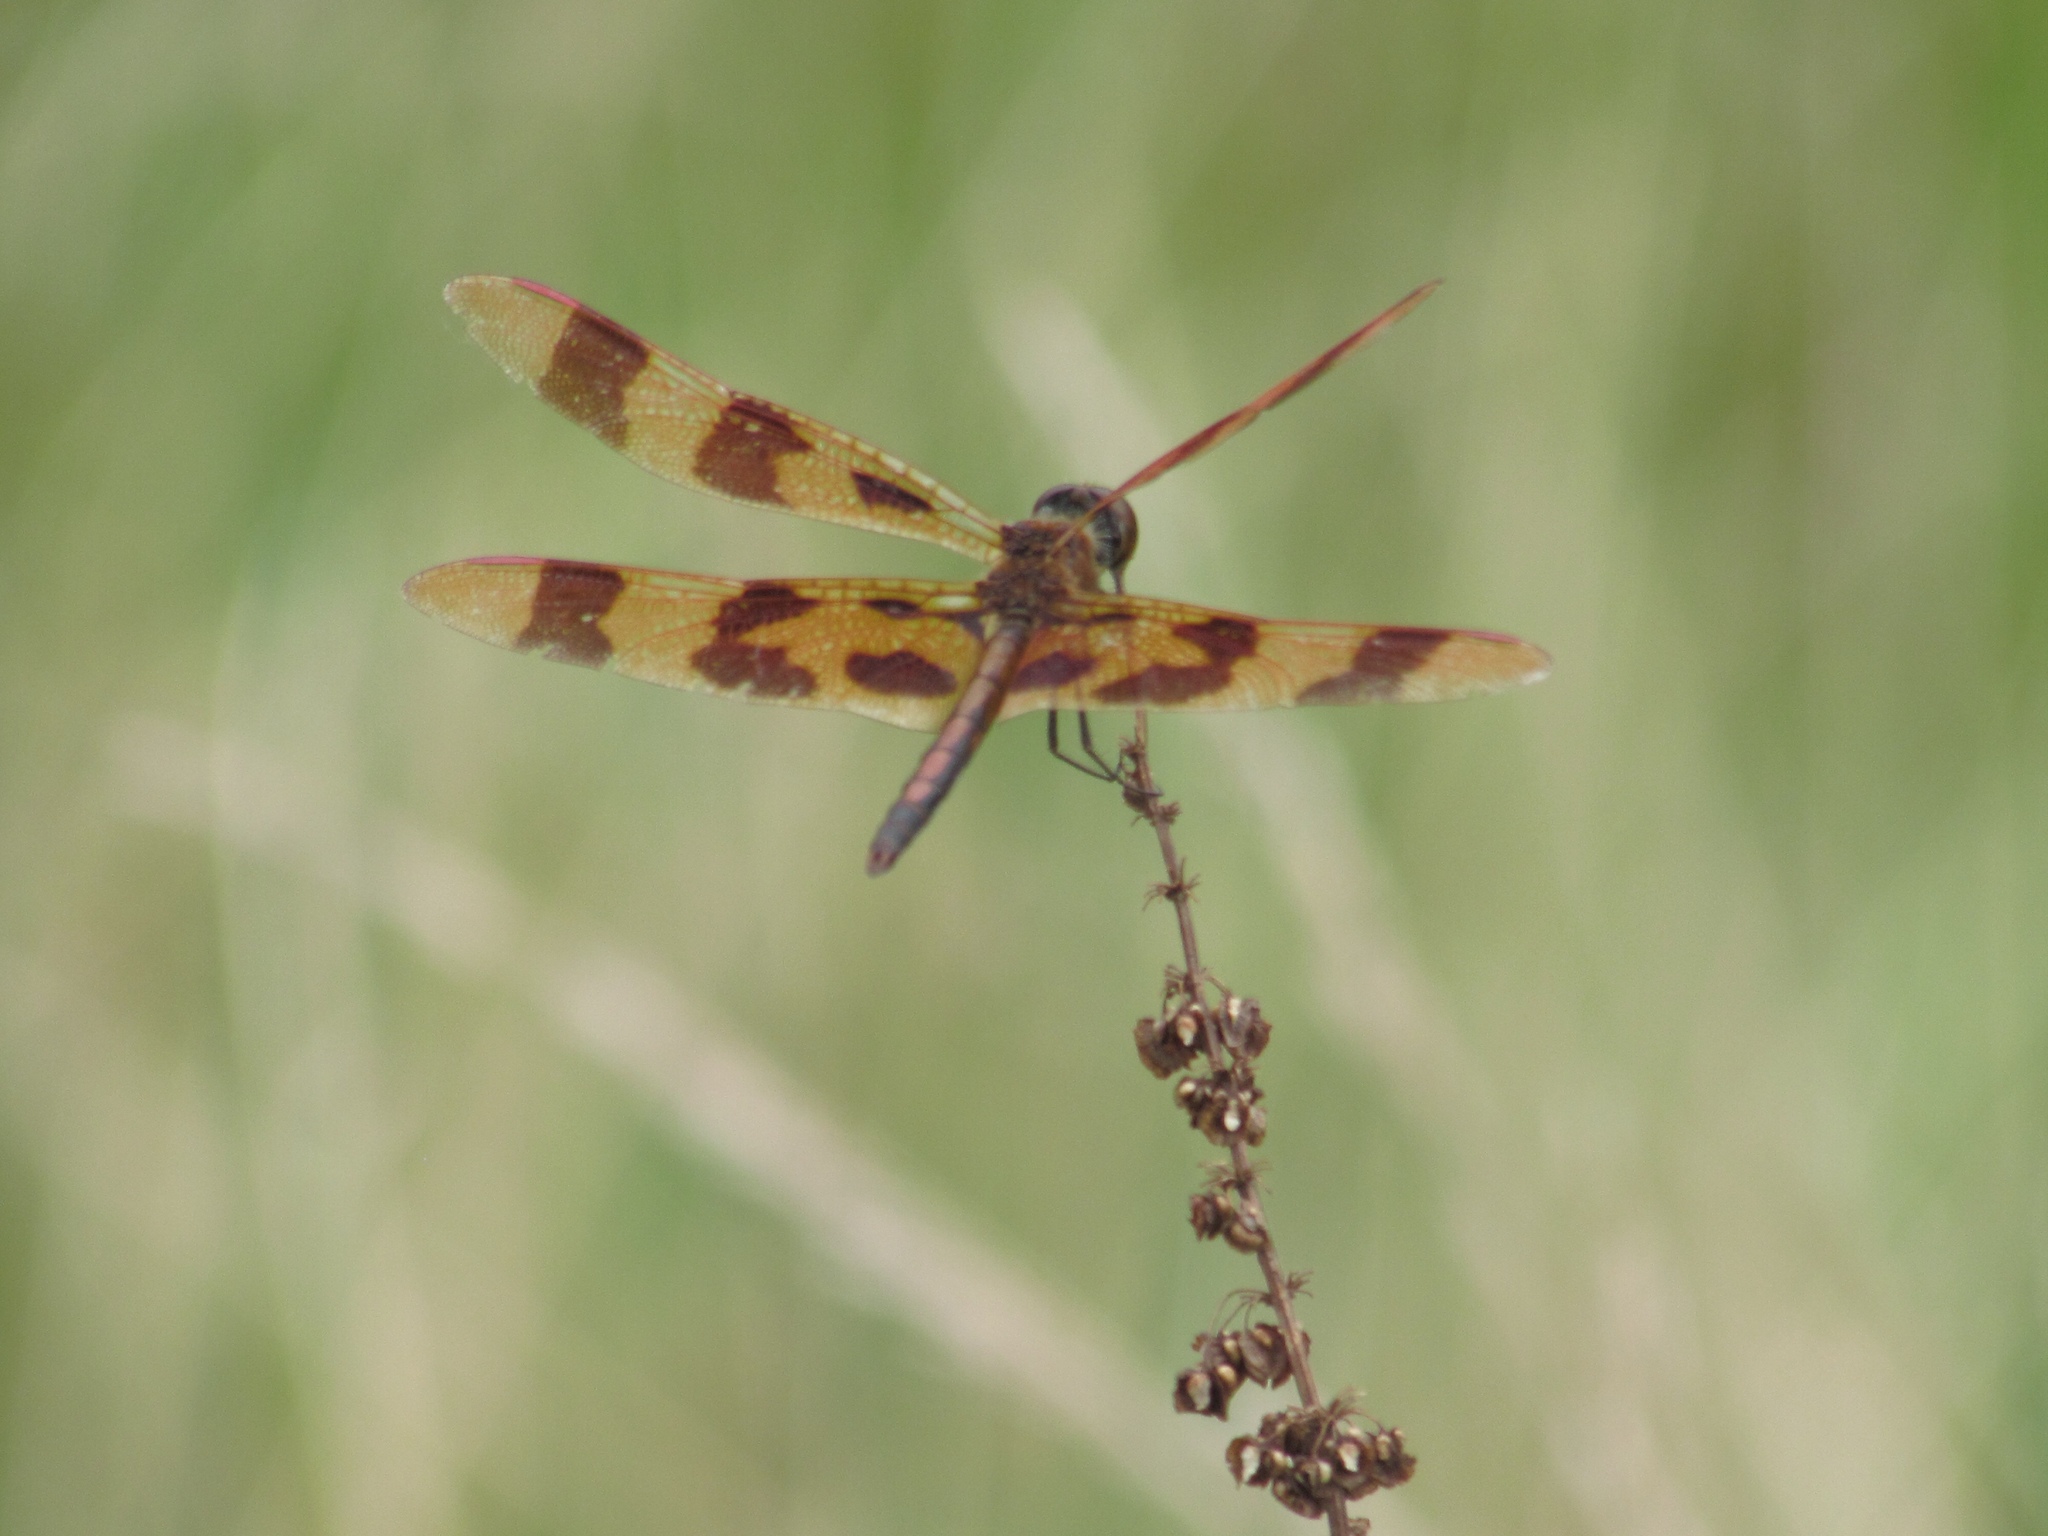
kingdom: Animalia
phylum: Arthropoda
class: Insecta
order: Odonata
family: Libellulidae
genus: Celithemis
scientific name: Celithemis eponina
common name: Halloween pennant
